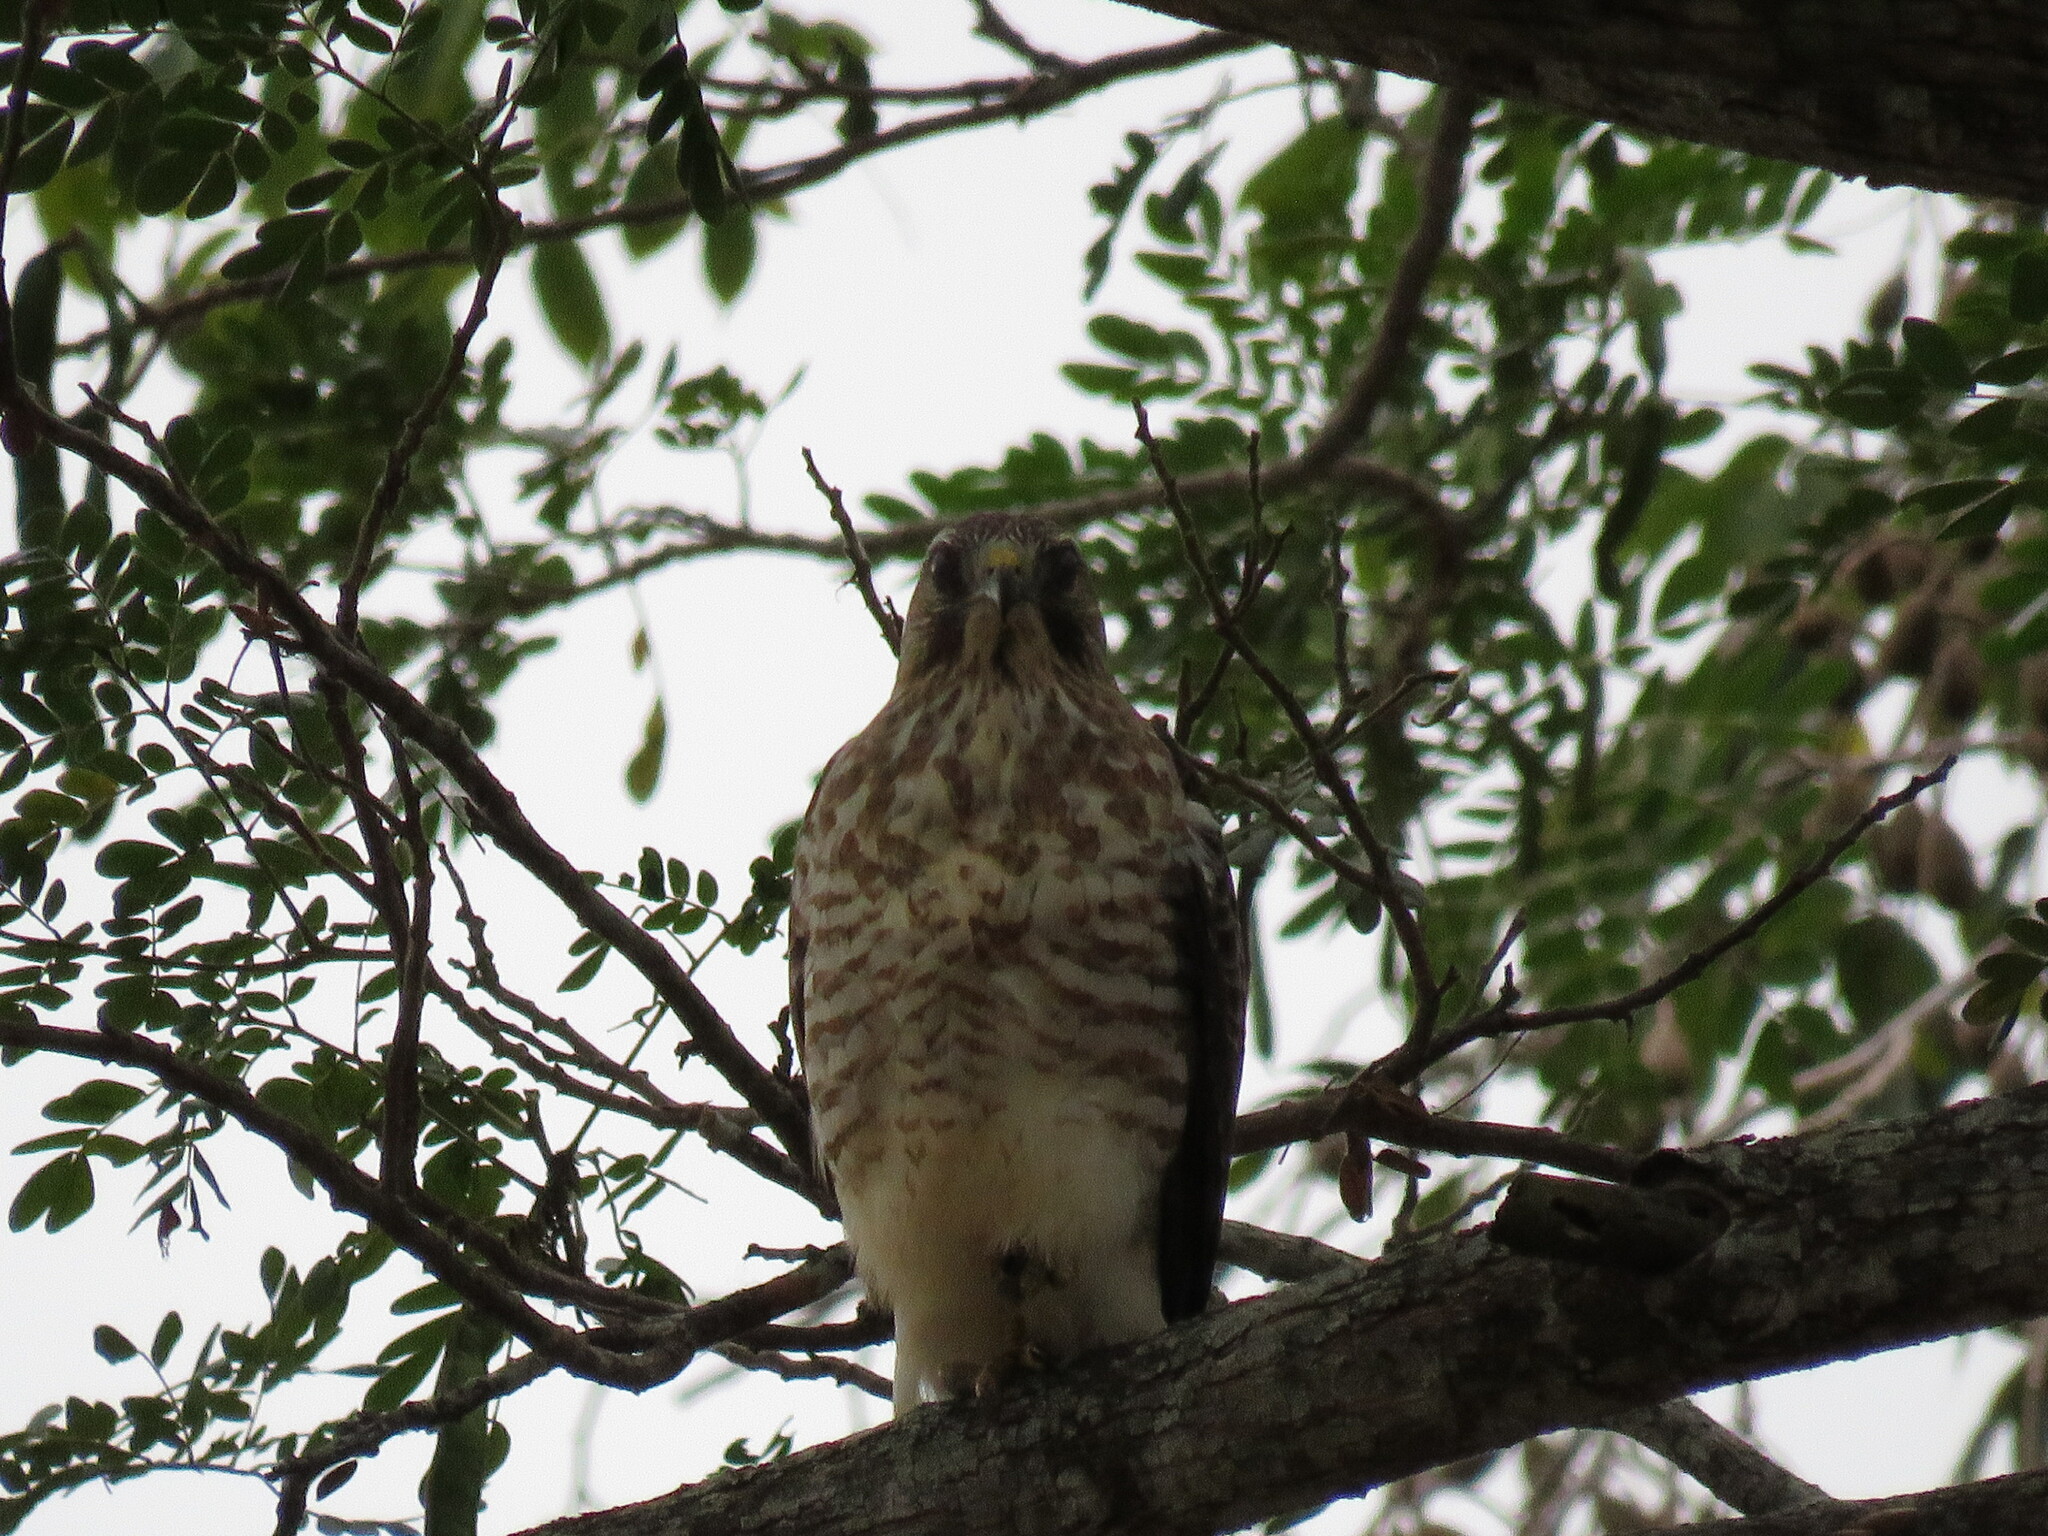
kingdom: Animalia
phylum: Chordata
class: Aves
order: Accipitriformes
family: Accipitridae
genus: Buteo
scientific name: Buteo platypterus
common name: Broad-winged hawk
